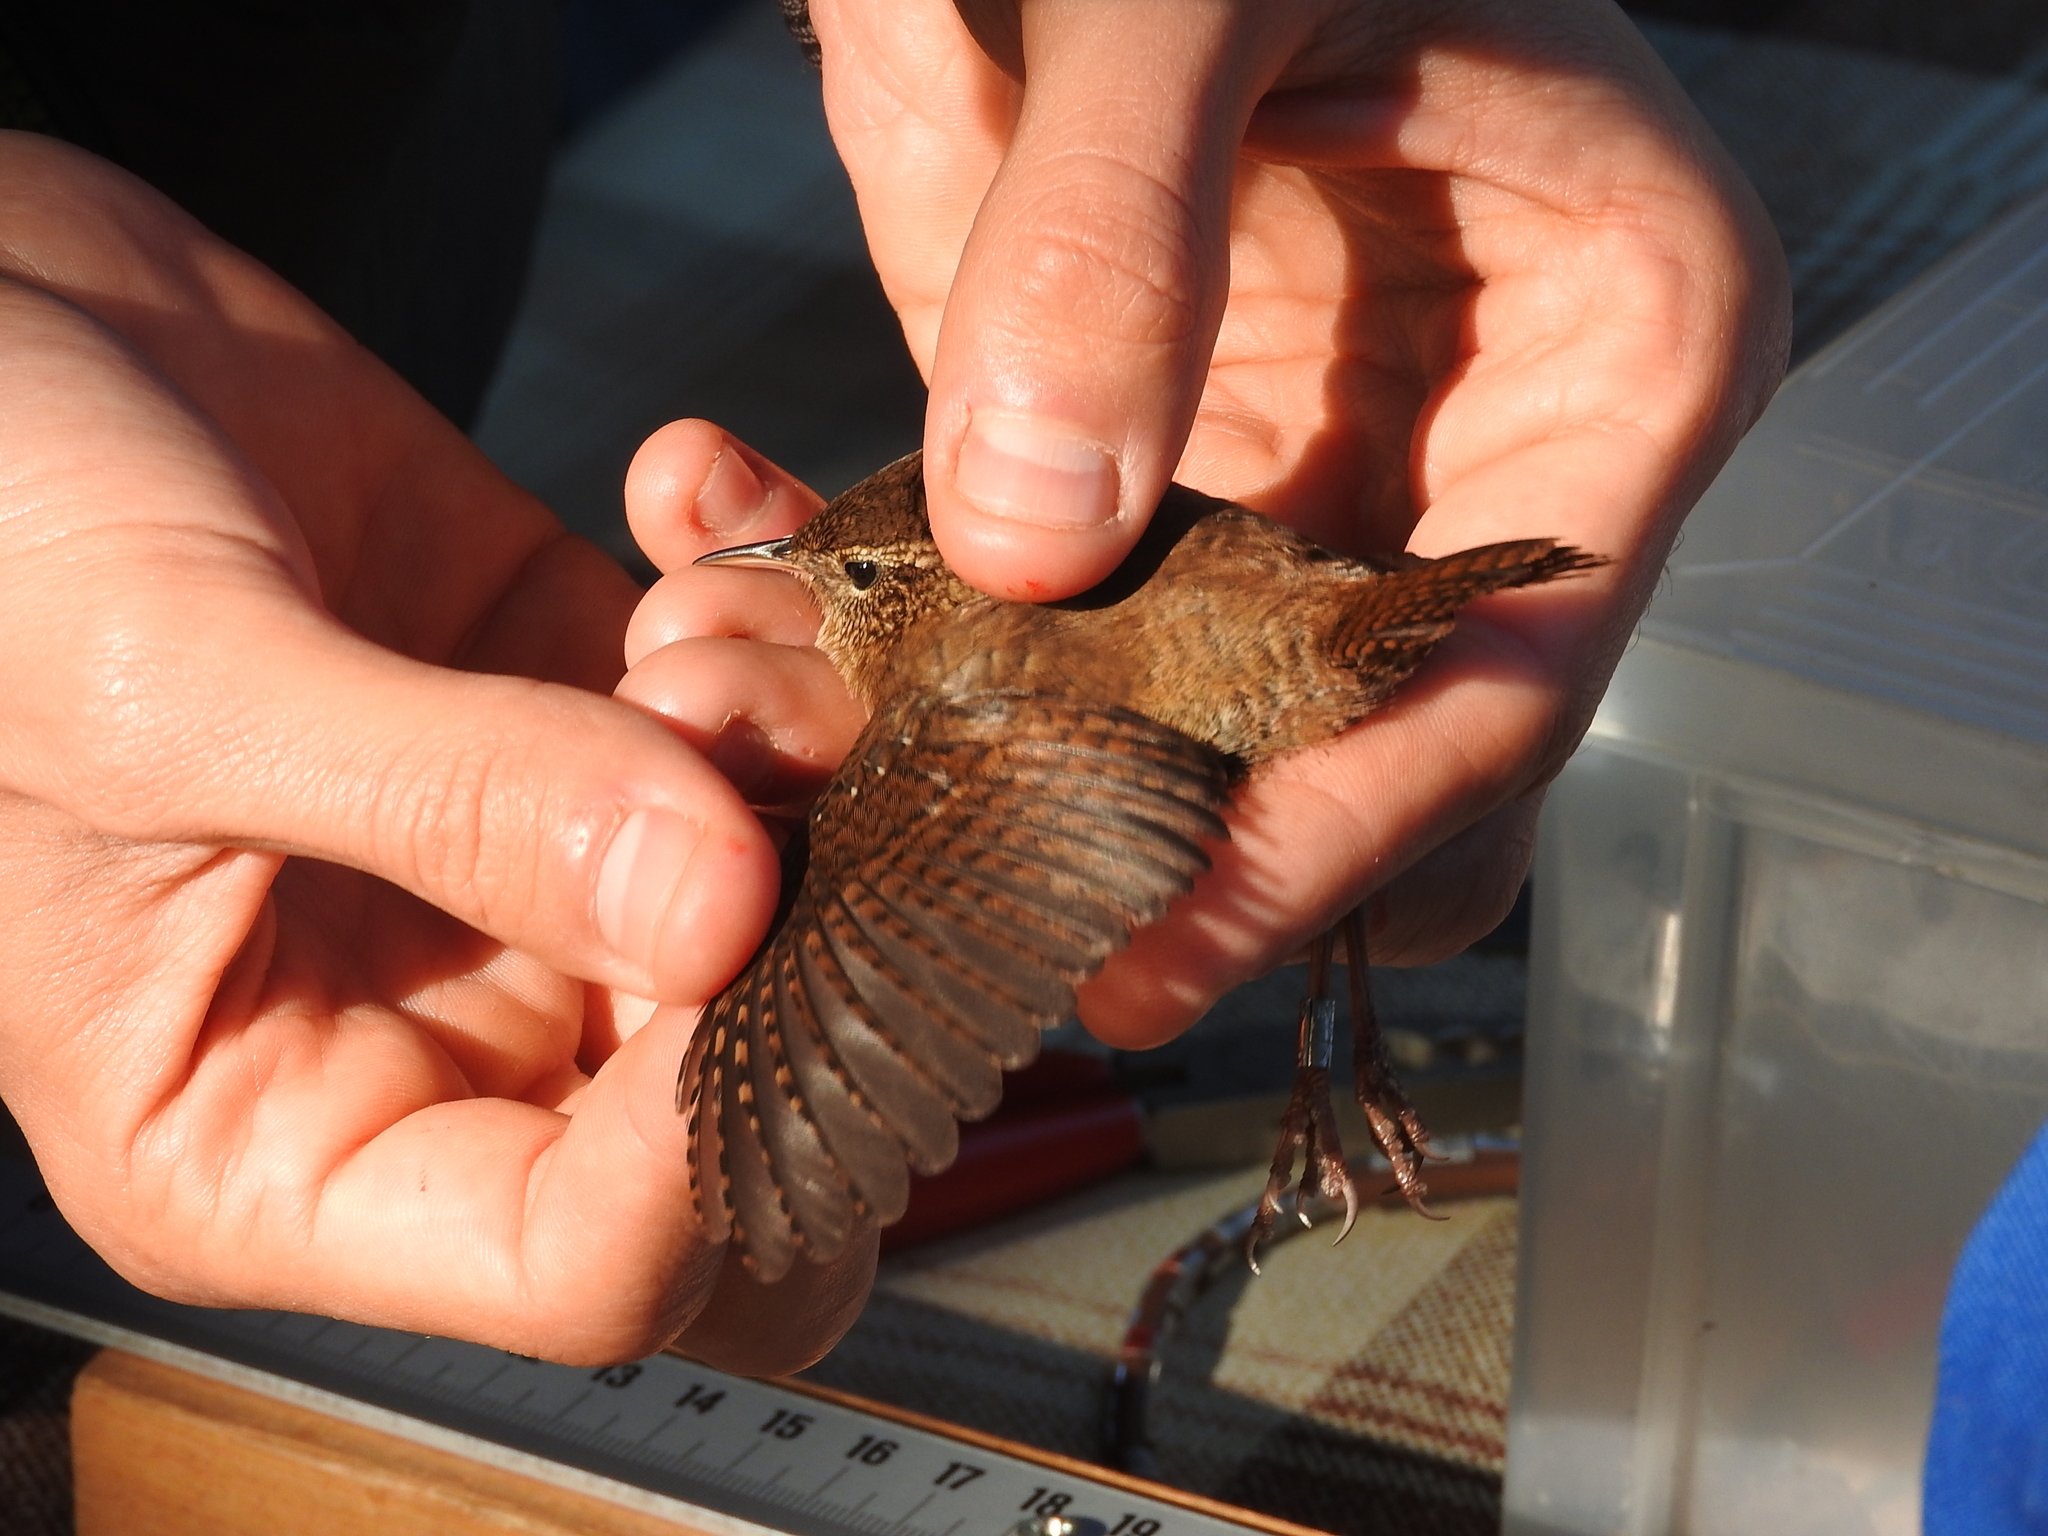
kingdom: Animalia
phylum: Chordata
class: Aves
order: Passeriformes
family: Troglodytidae
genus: Troglodytes
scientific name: Troglodytes troglodytes
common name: Eurasian wren
